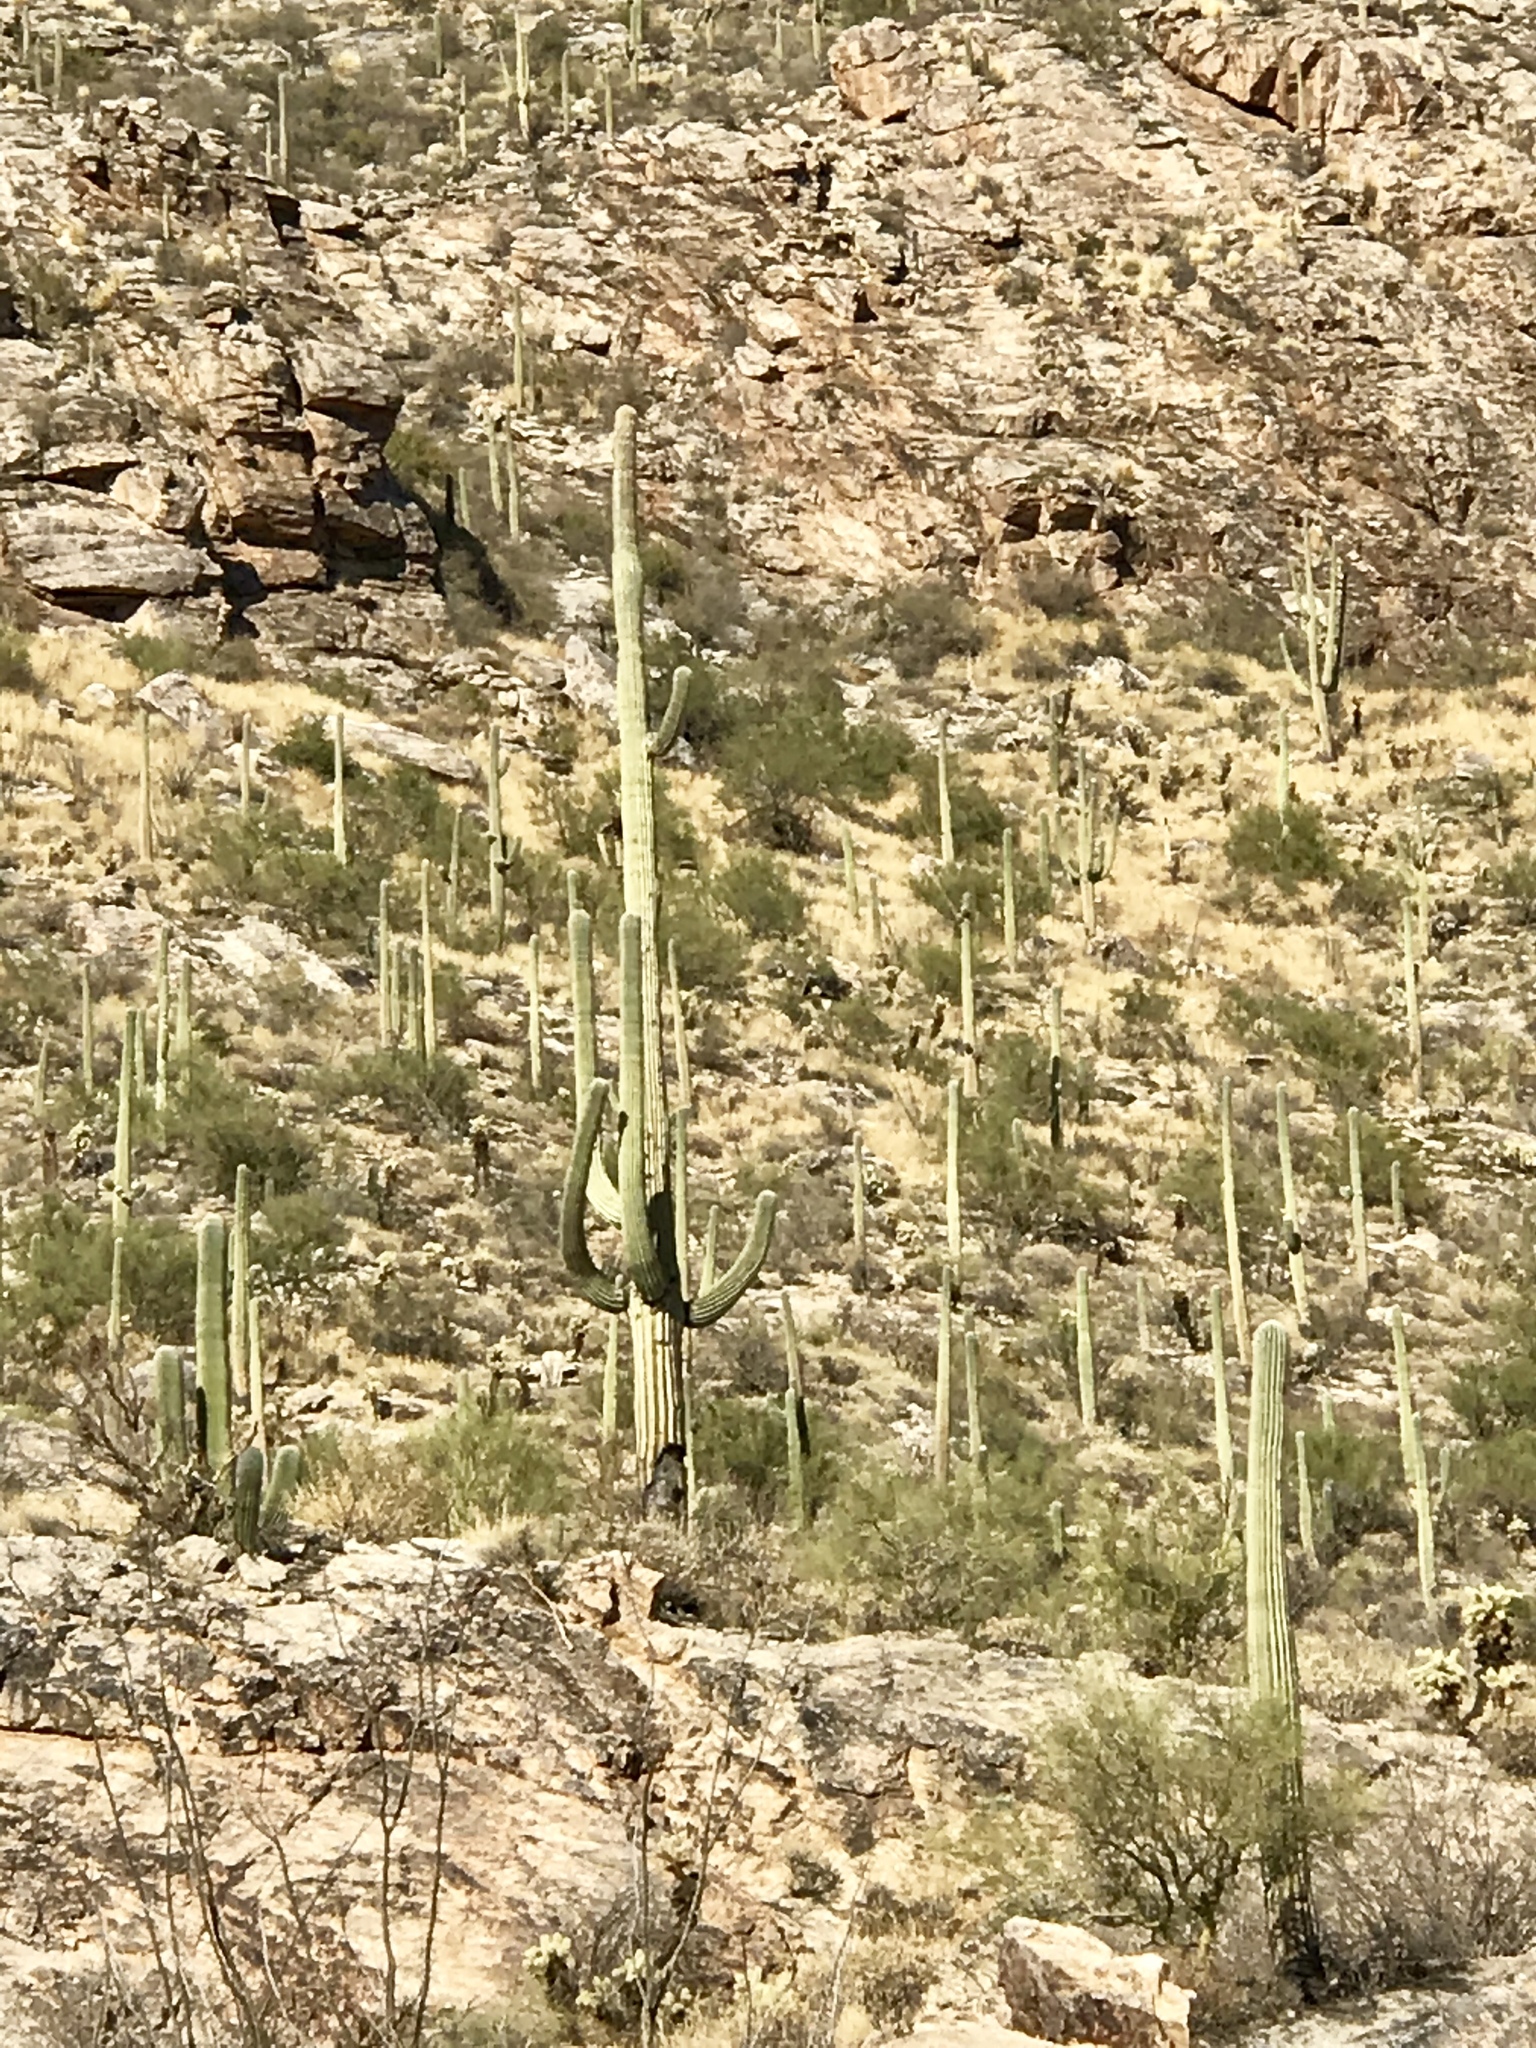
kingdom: Plantae
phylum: Tracheophyta
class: Magnoliopsida
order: Caryophyllales
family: Cactaceae
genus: Carnegiea
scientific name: Carnegiea gigantea
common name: Saguaro
